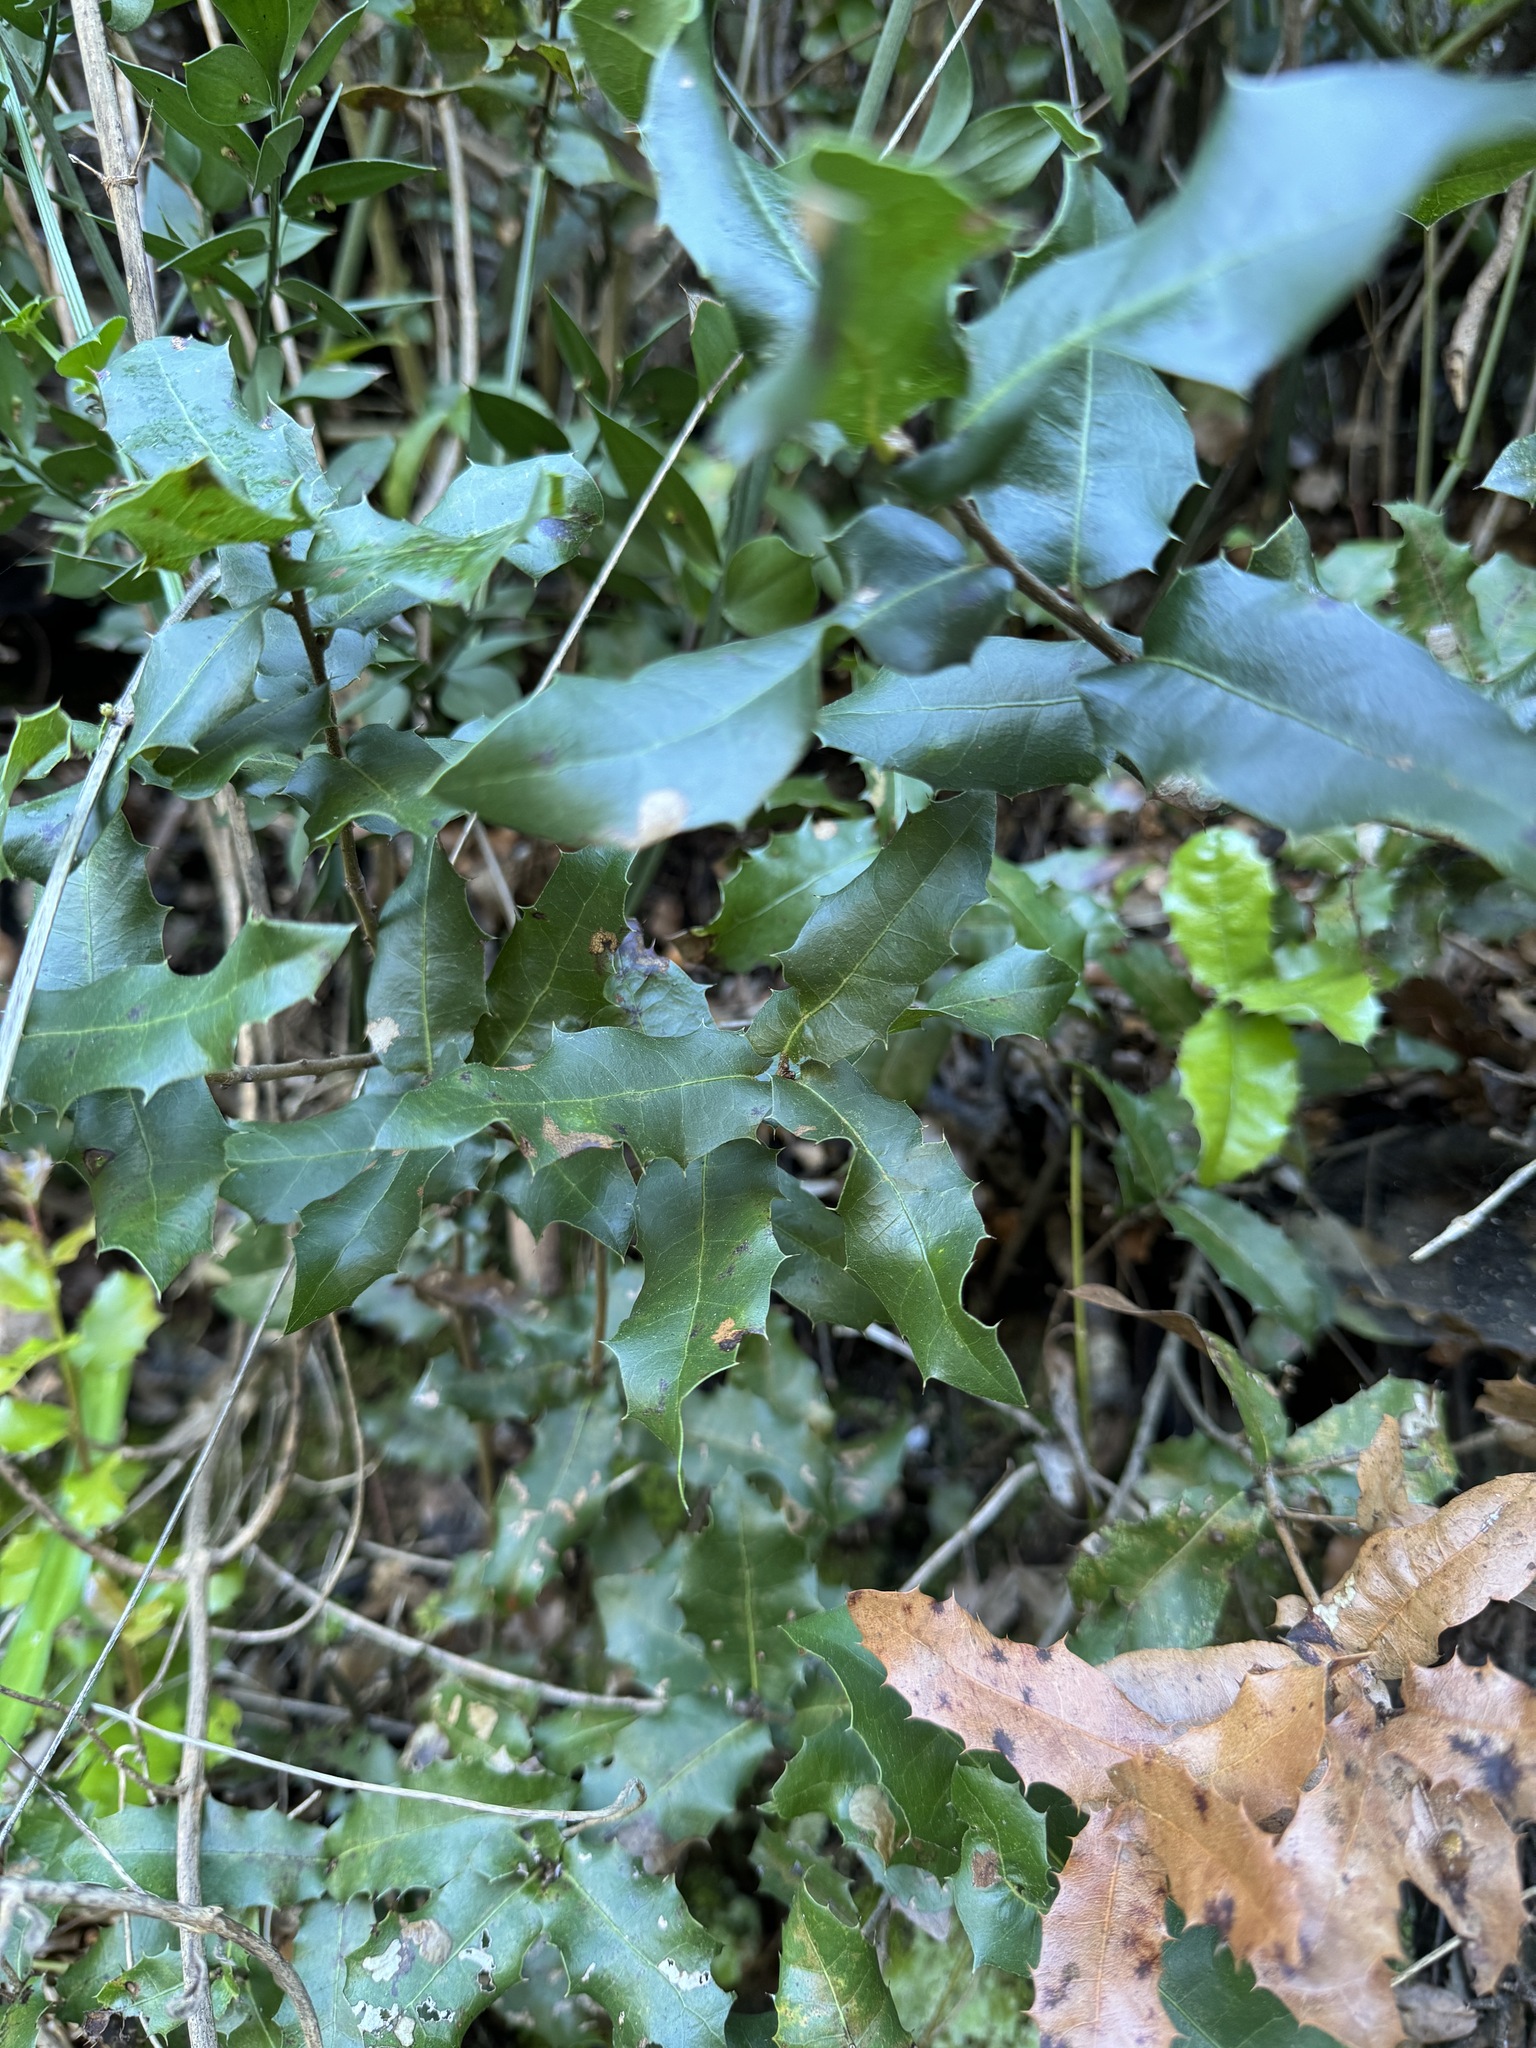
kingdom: Plantae
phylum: Tracheophyta
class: Magnoliopsida
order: Fagales
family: Fagaceae
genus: Quercus
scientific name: Quercus coccifera
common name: Kermes oak
